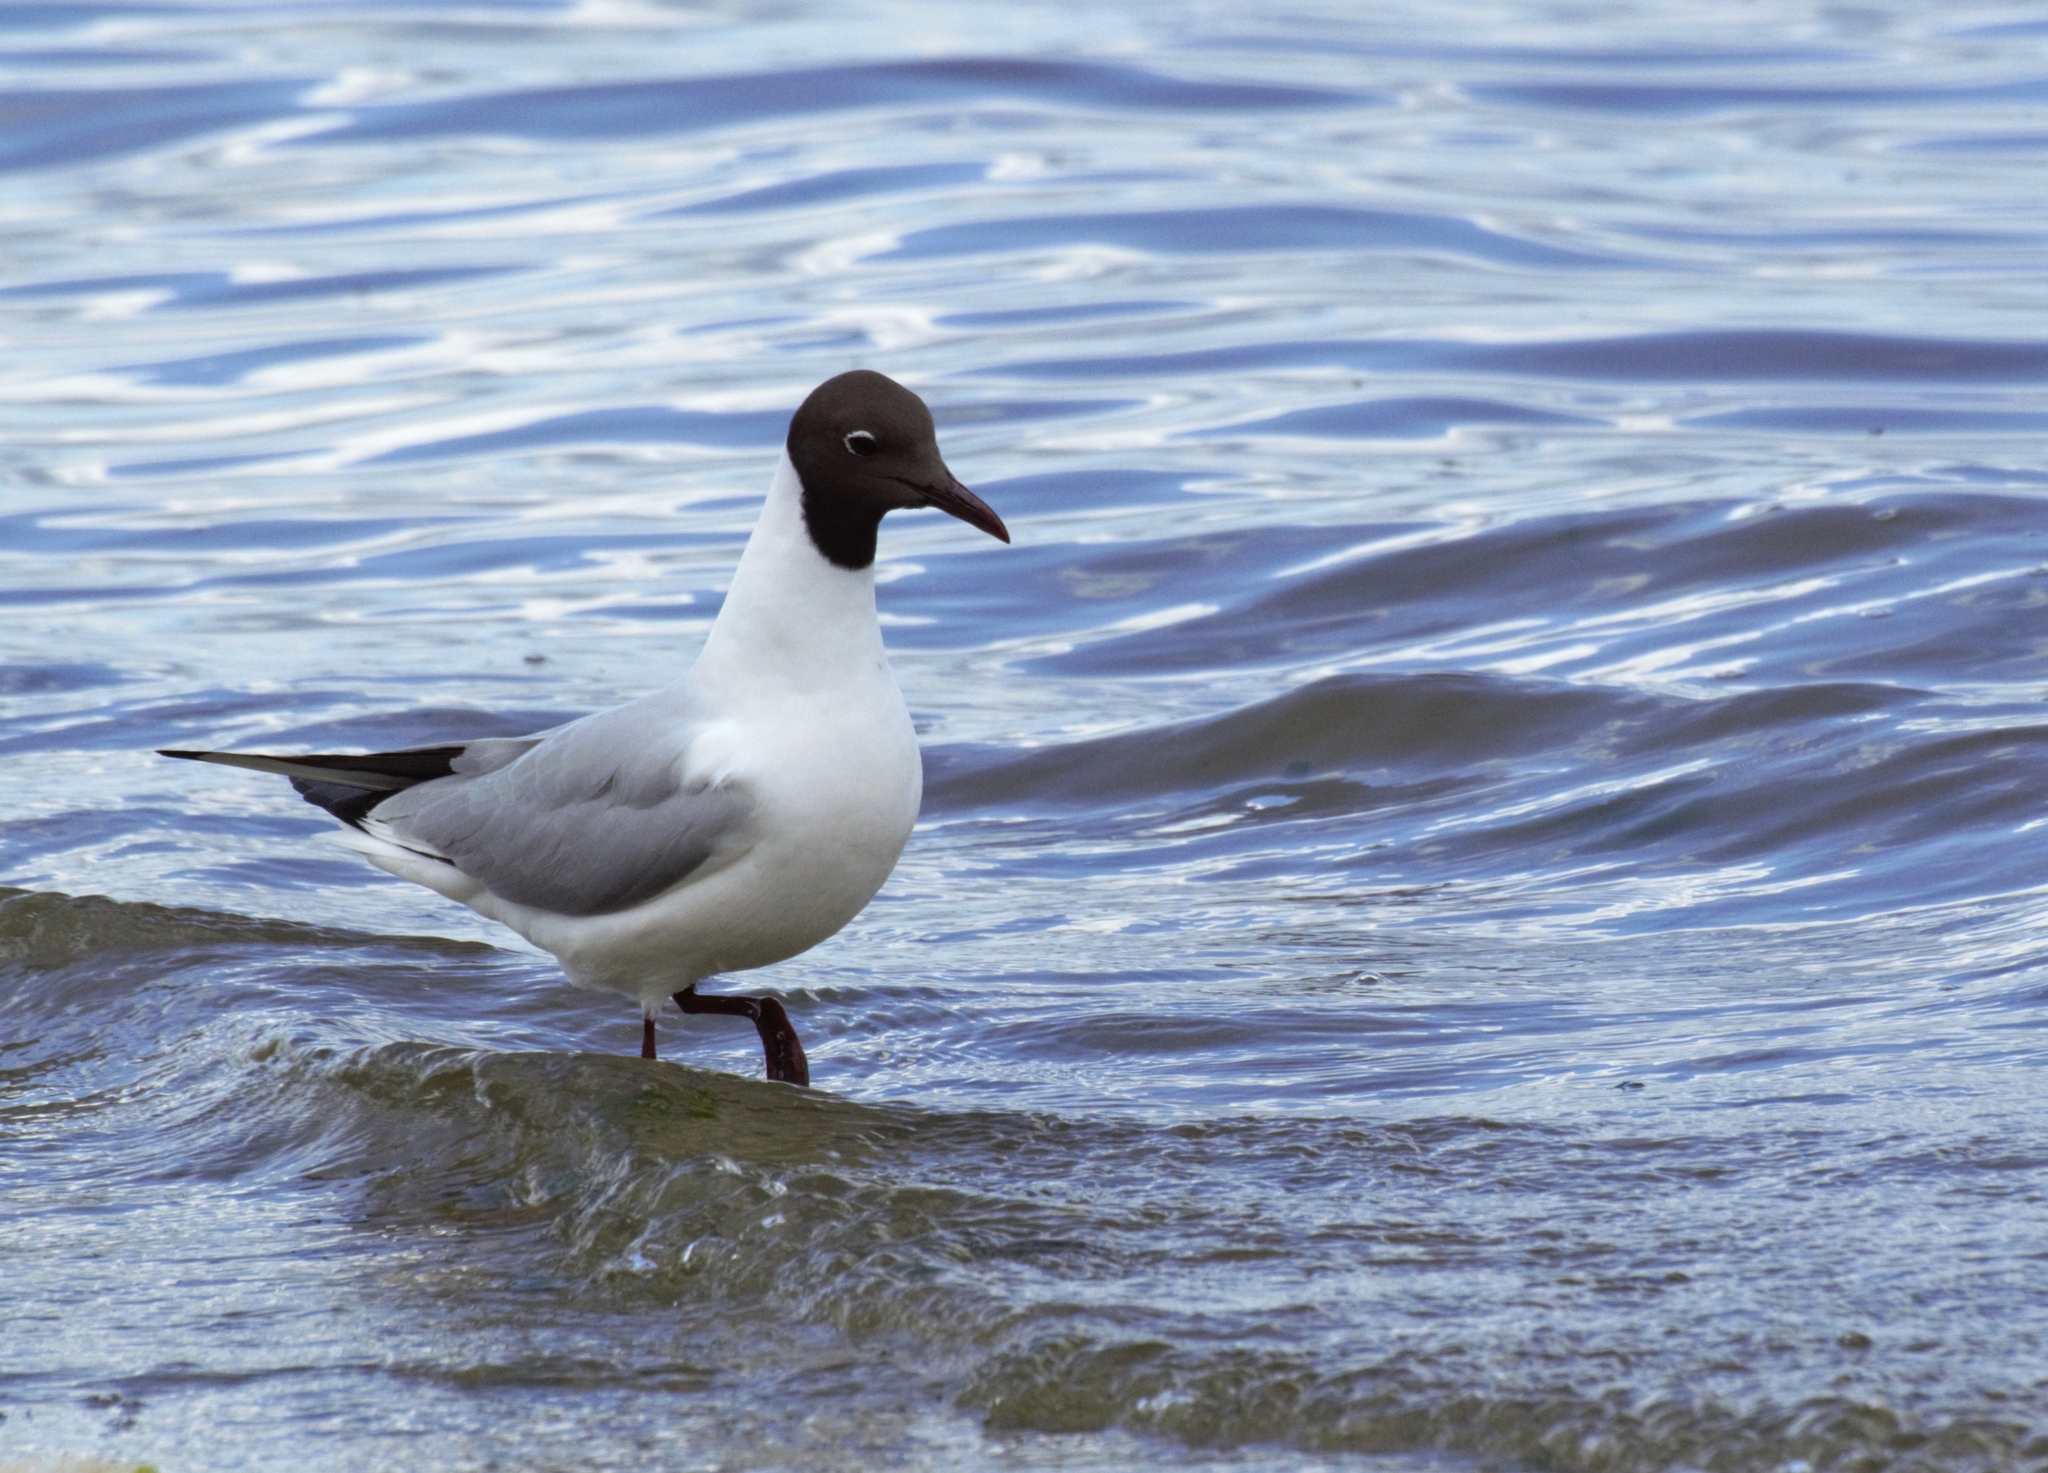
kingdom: Animalia
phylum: Chordata
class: Aves
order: Charadriiformes
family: Laridae
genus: Chroicocephalus
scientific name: Chroicocephalus ridibundus
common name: Black-headed gull
